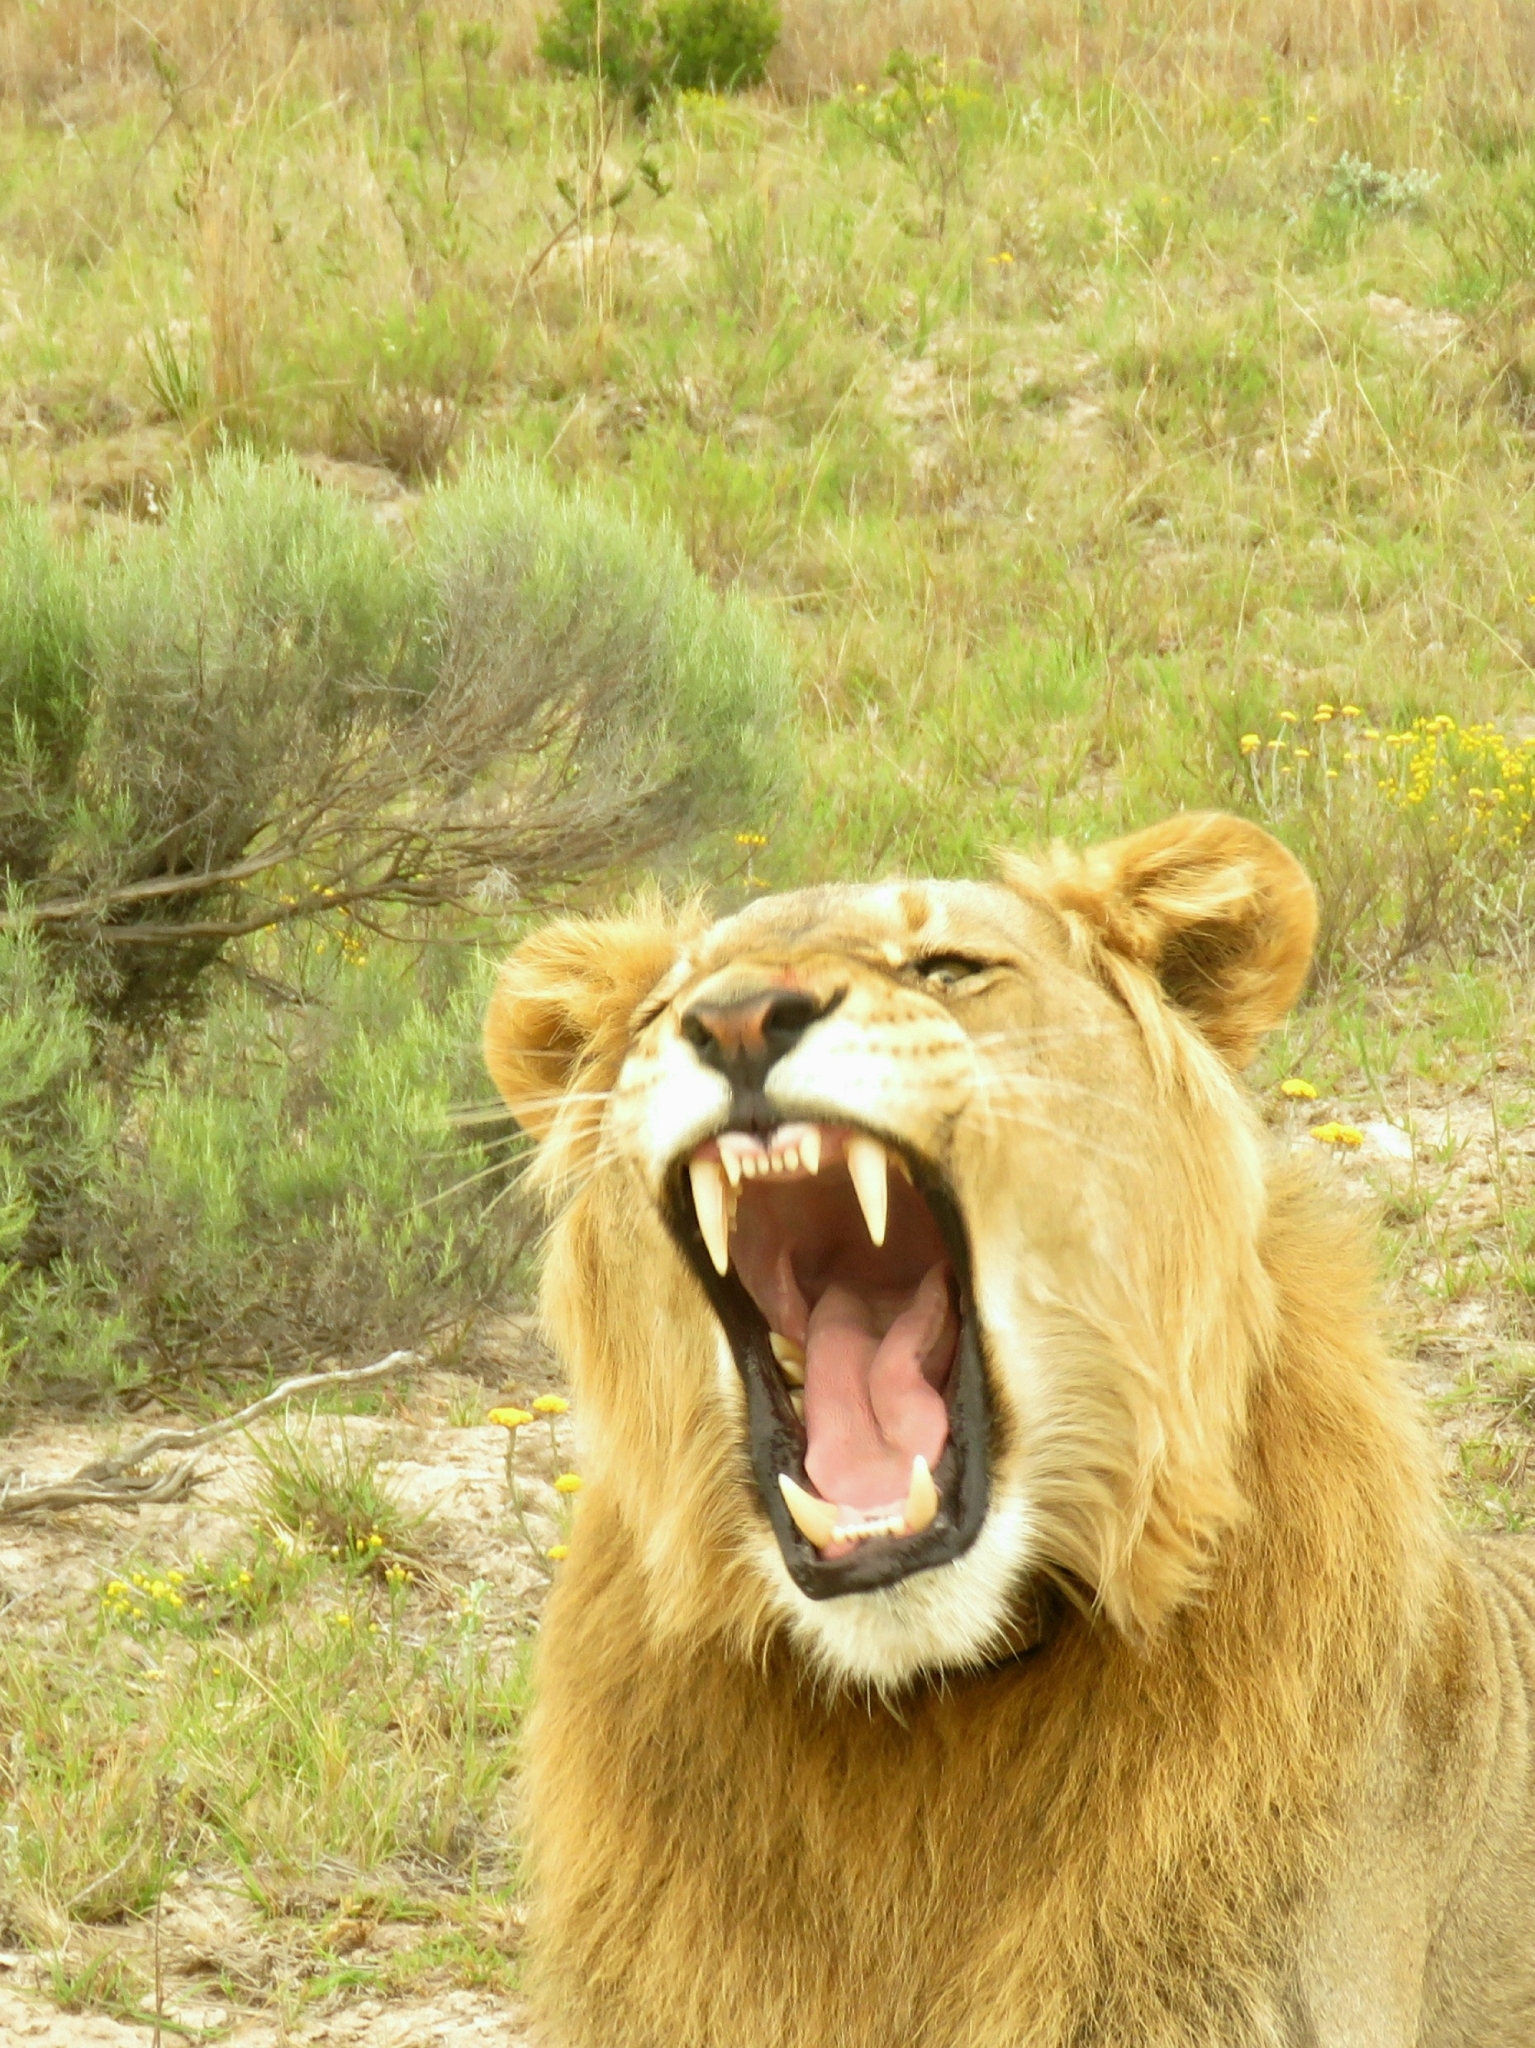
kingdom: Animalia
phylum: Chordata
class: Mammalia
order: Carnivora
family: Felidae
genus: Panthera
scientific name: Panthera leo
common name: Lion
